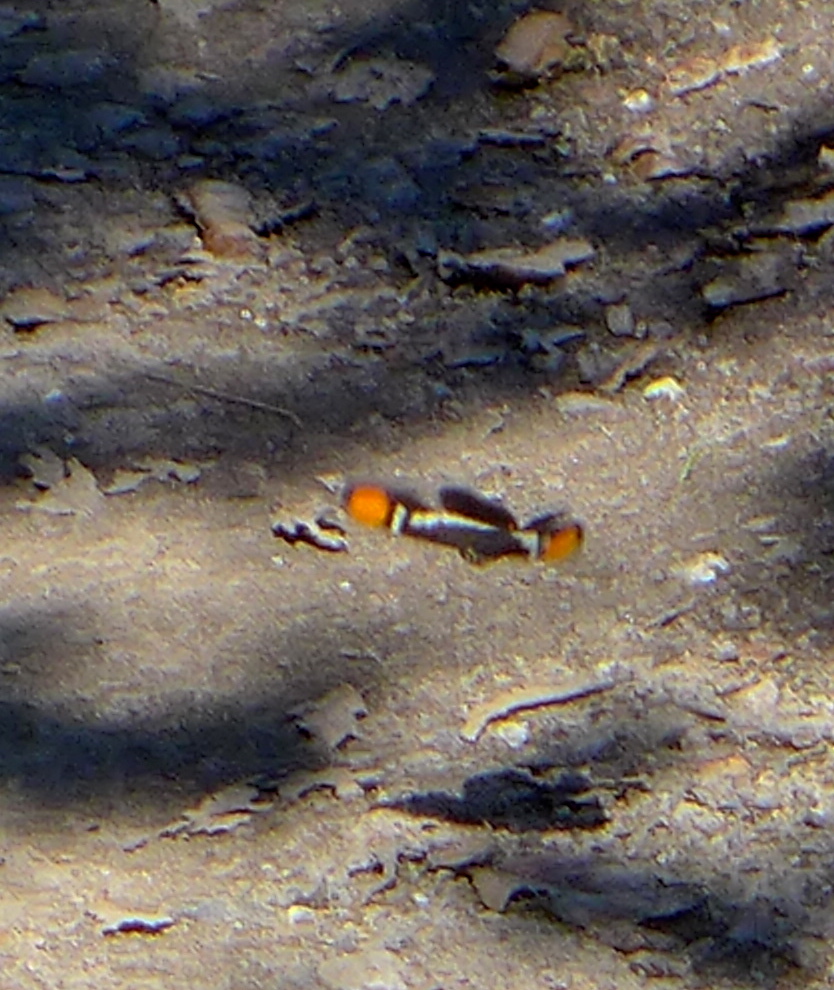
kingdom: Animalia
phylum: Arthropoda
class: Insecta
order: Lepidoptera
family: Nymphalidae
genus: Limenitis
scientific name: Limenitis bredowii
